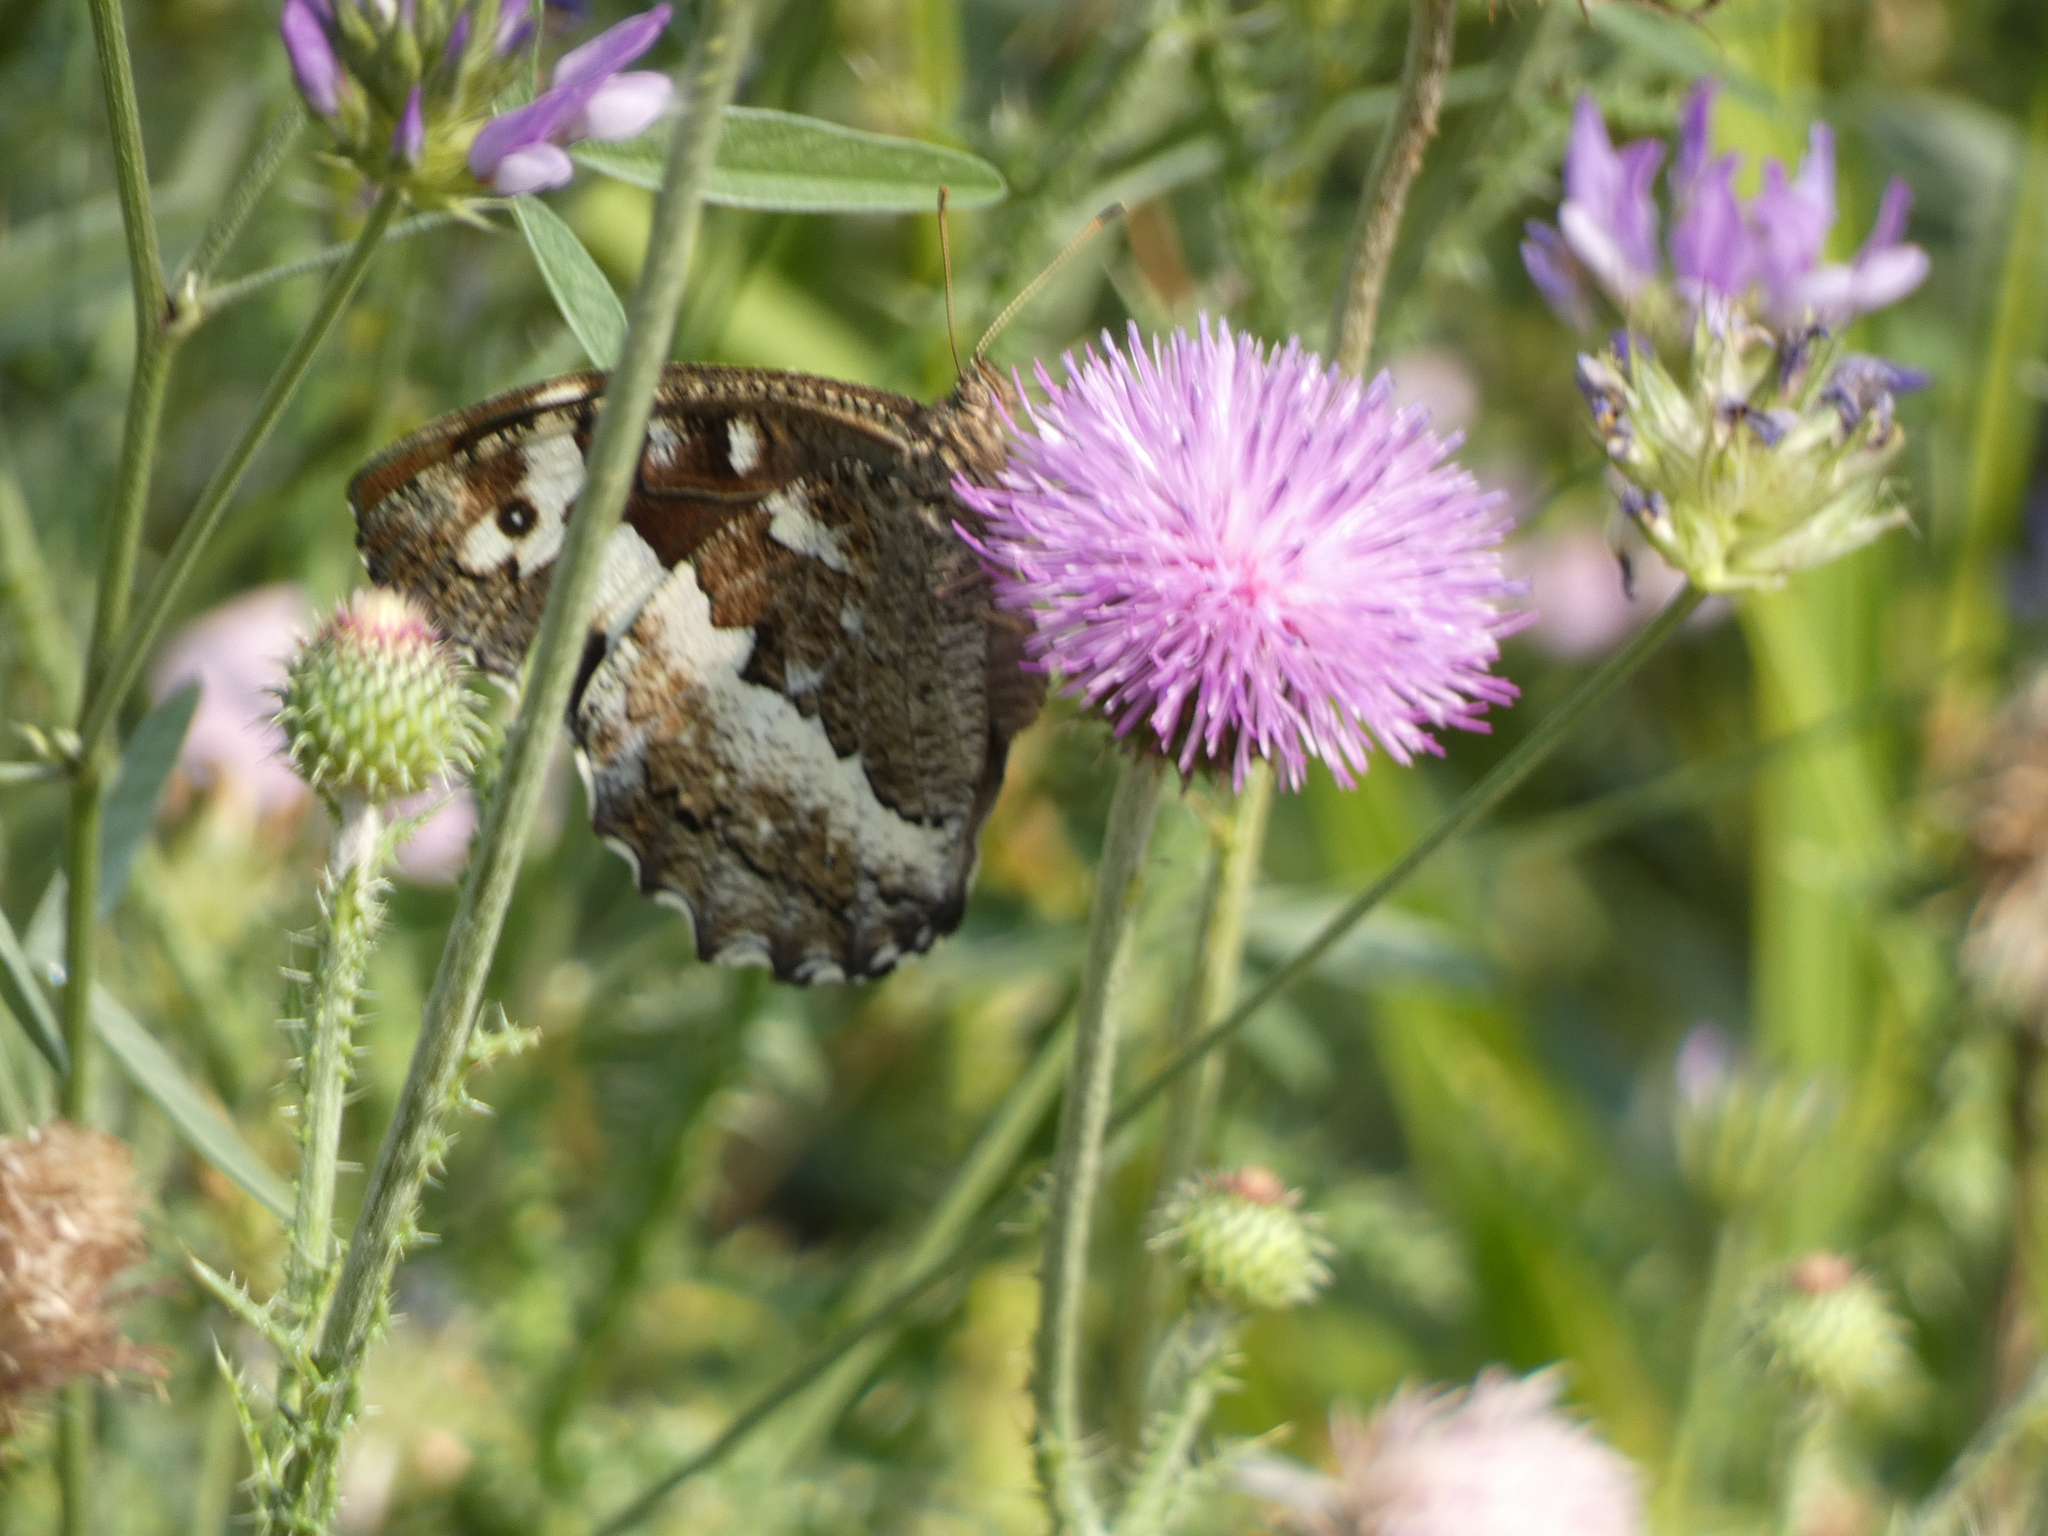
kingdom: Animalia
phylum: Arthropoda
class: Insecta
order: Lepidoptera
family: Lycaenidae
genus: Loweia
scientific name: Loweia tityrus
